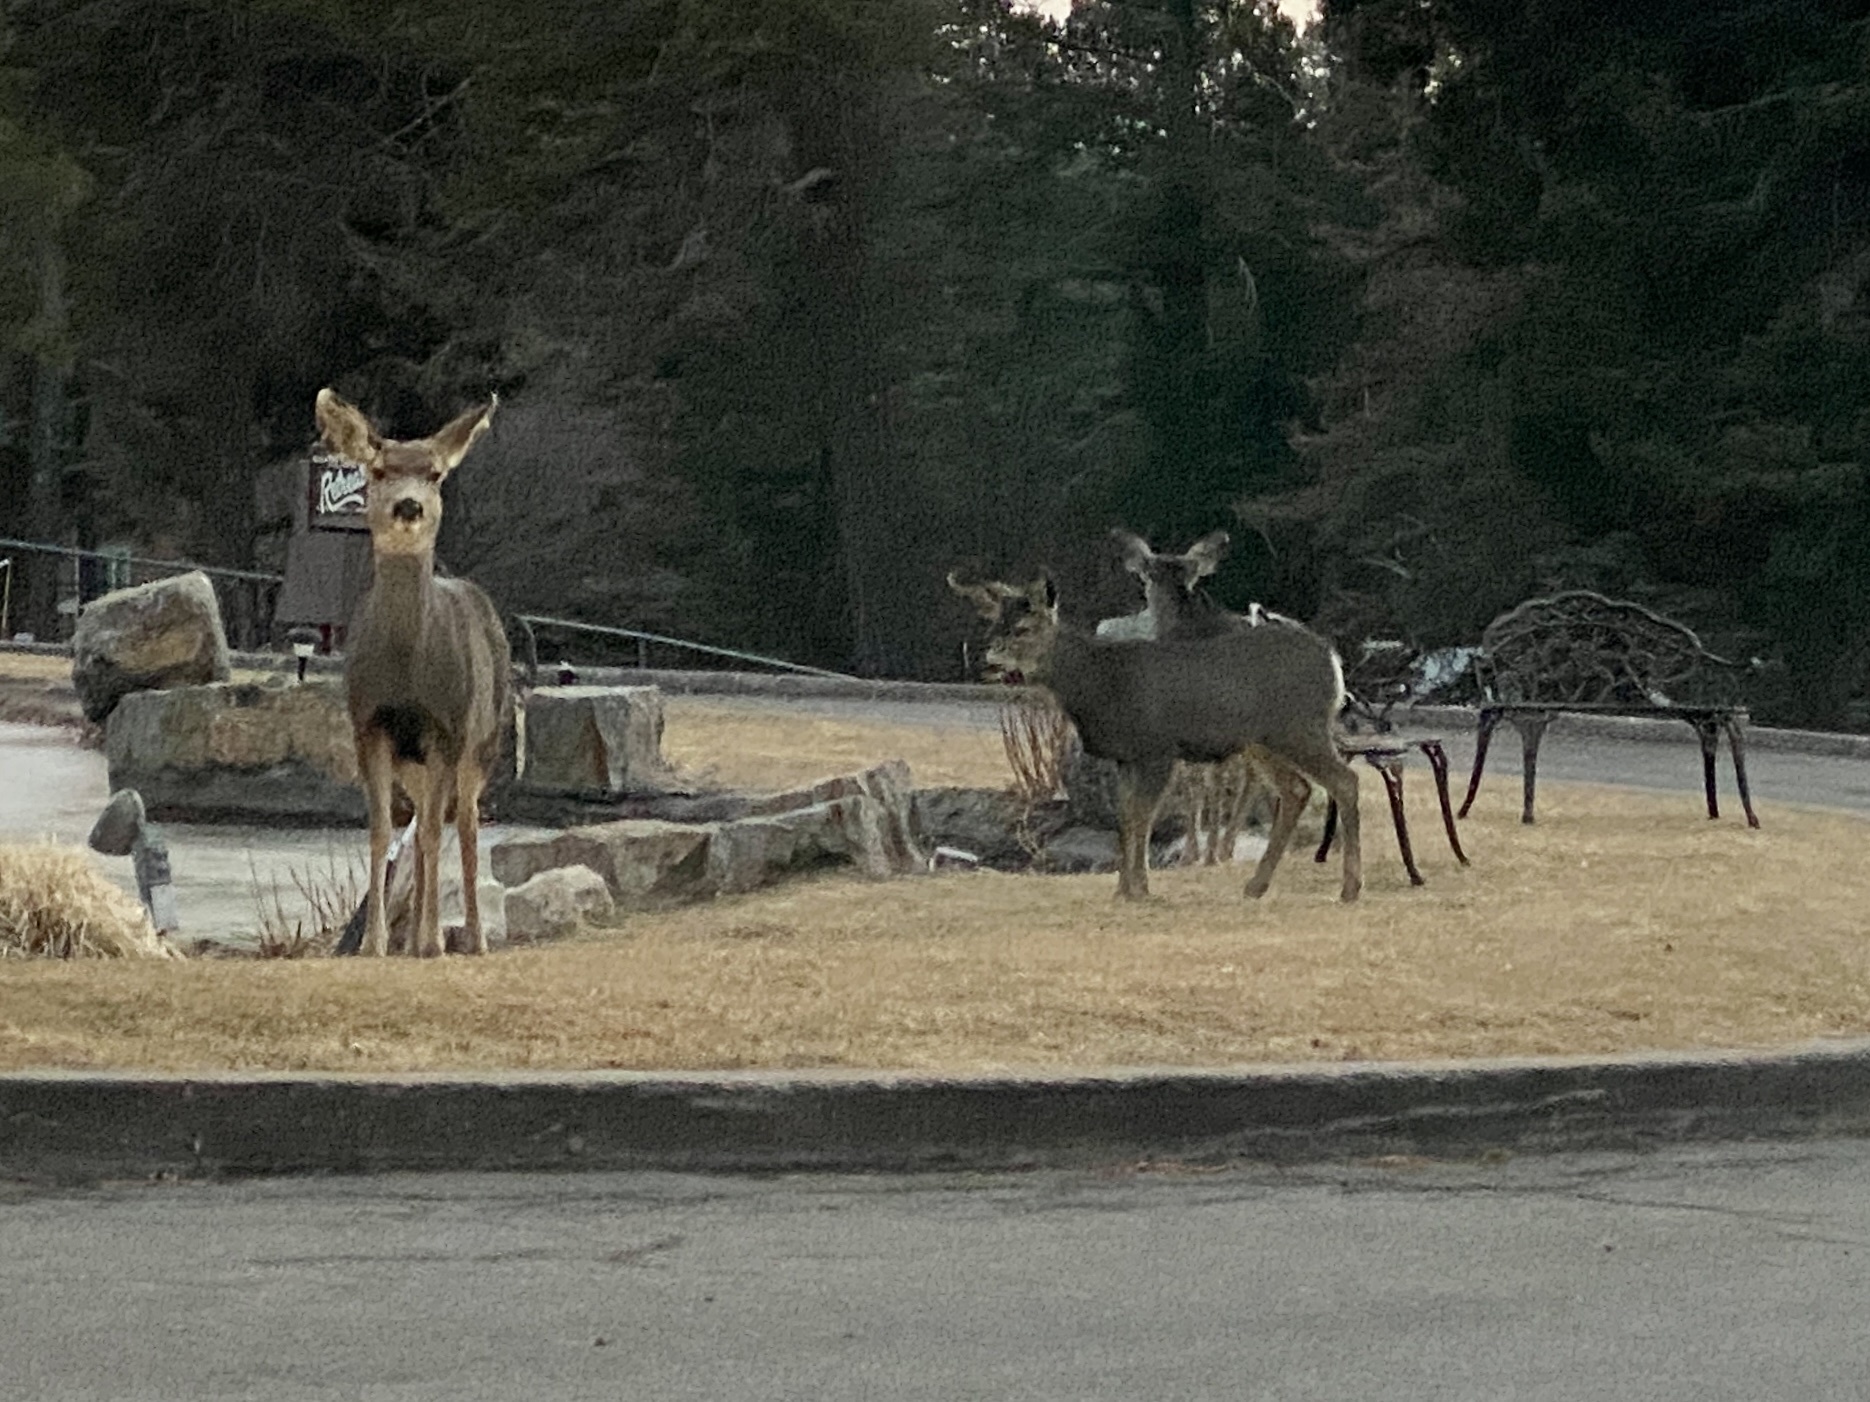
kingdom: Animalia
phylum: Chordata
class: Mammalia
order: Artiodactyla
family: Cervidae
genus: Odocoileus
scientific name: Odocoileus hemionus
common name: Mule deer
